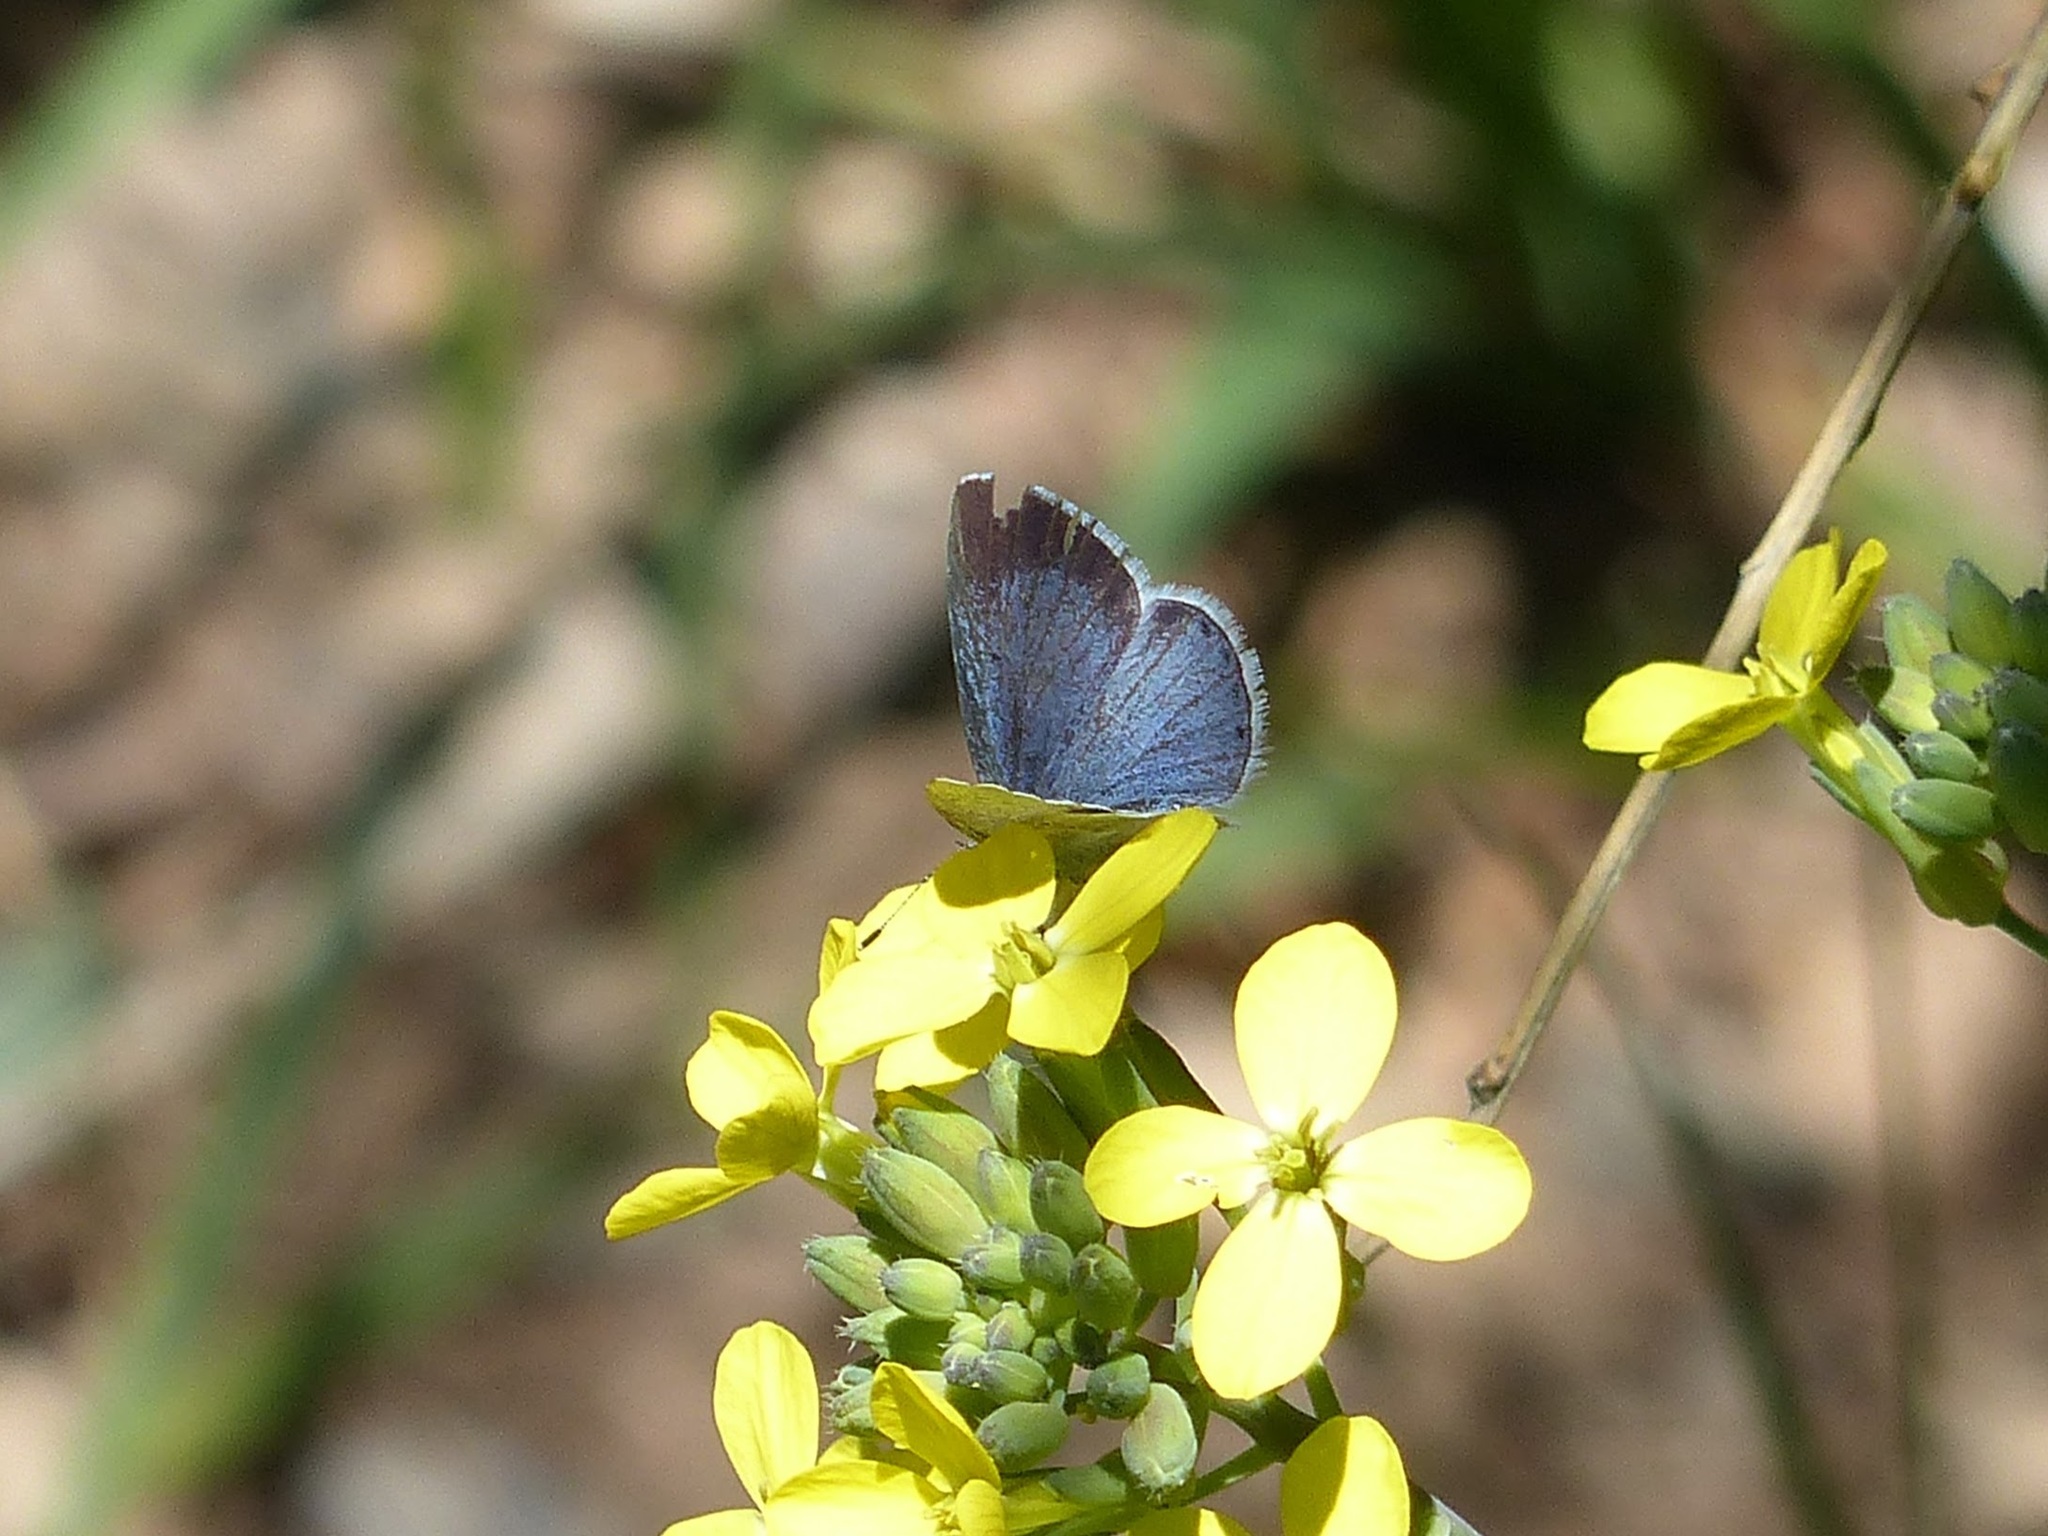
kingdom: Animalia
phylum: Arthropoda
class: Insecta
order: Lepidoptera
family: Lycaenidae
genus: Celastrina
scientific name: Celastrina argiolus
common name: Holly blue
